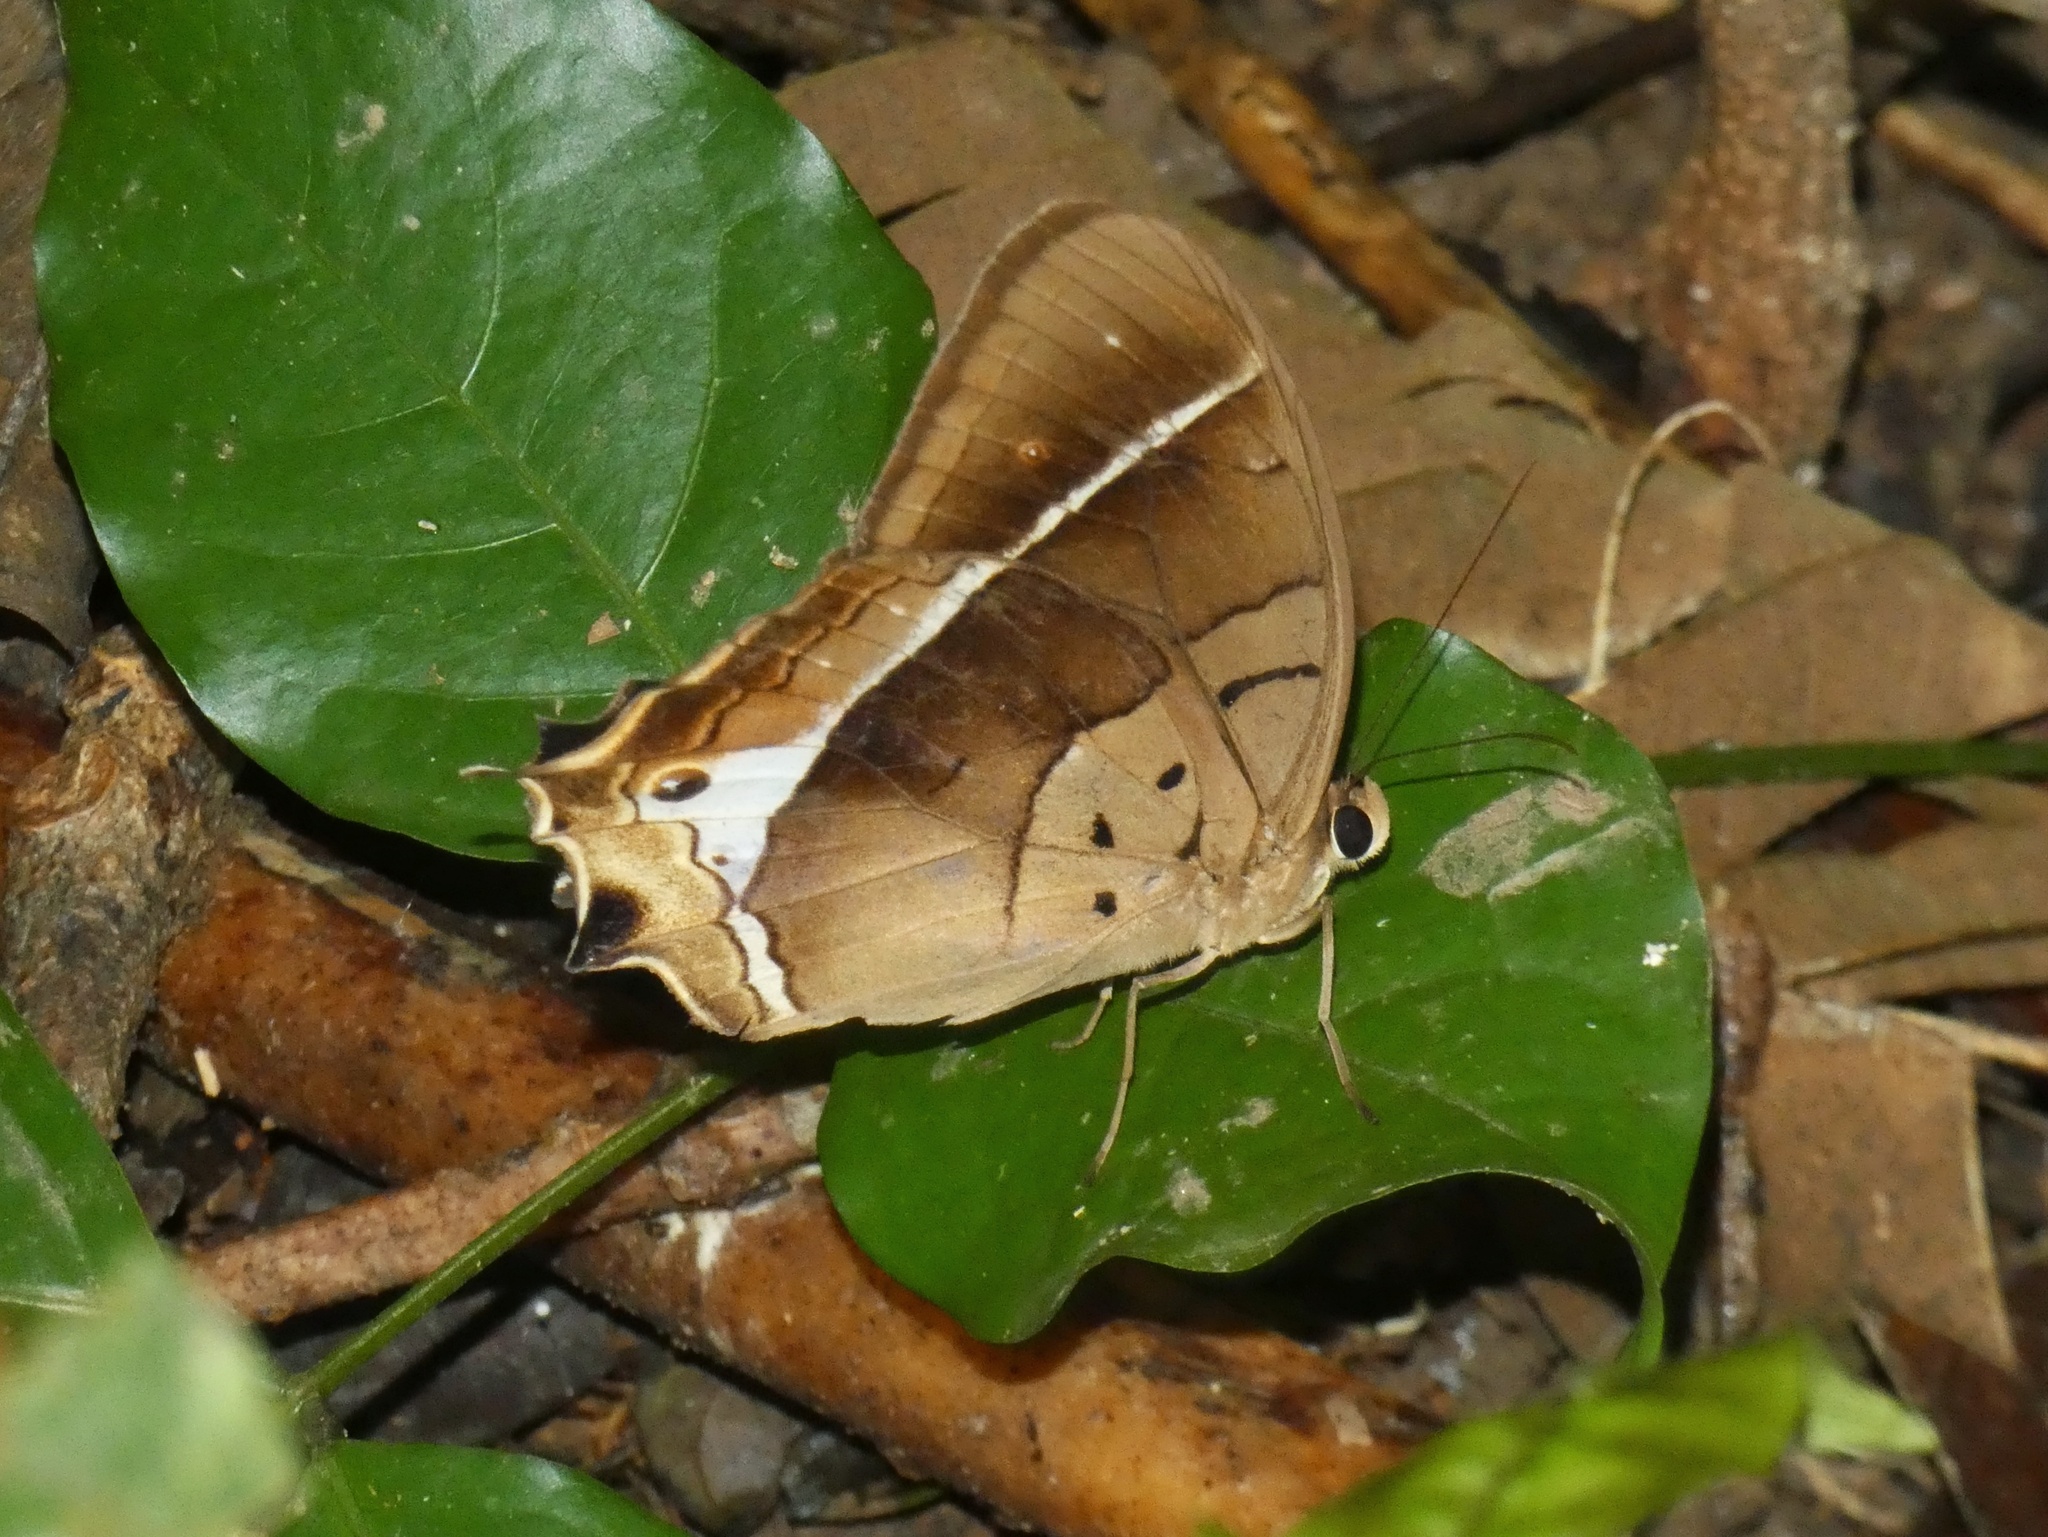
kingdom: Animalia
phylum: Arthropoda
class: Insecta
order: Lepidoptera
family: Nymphalidae
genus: Antirrhea
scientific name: Antirrhea philaretes
